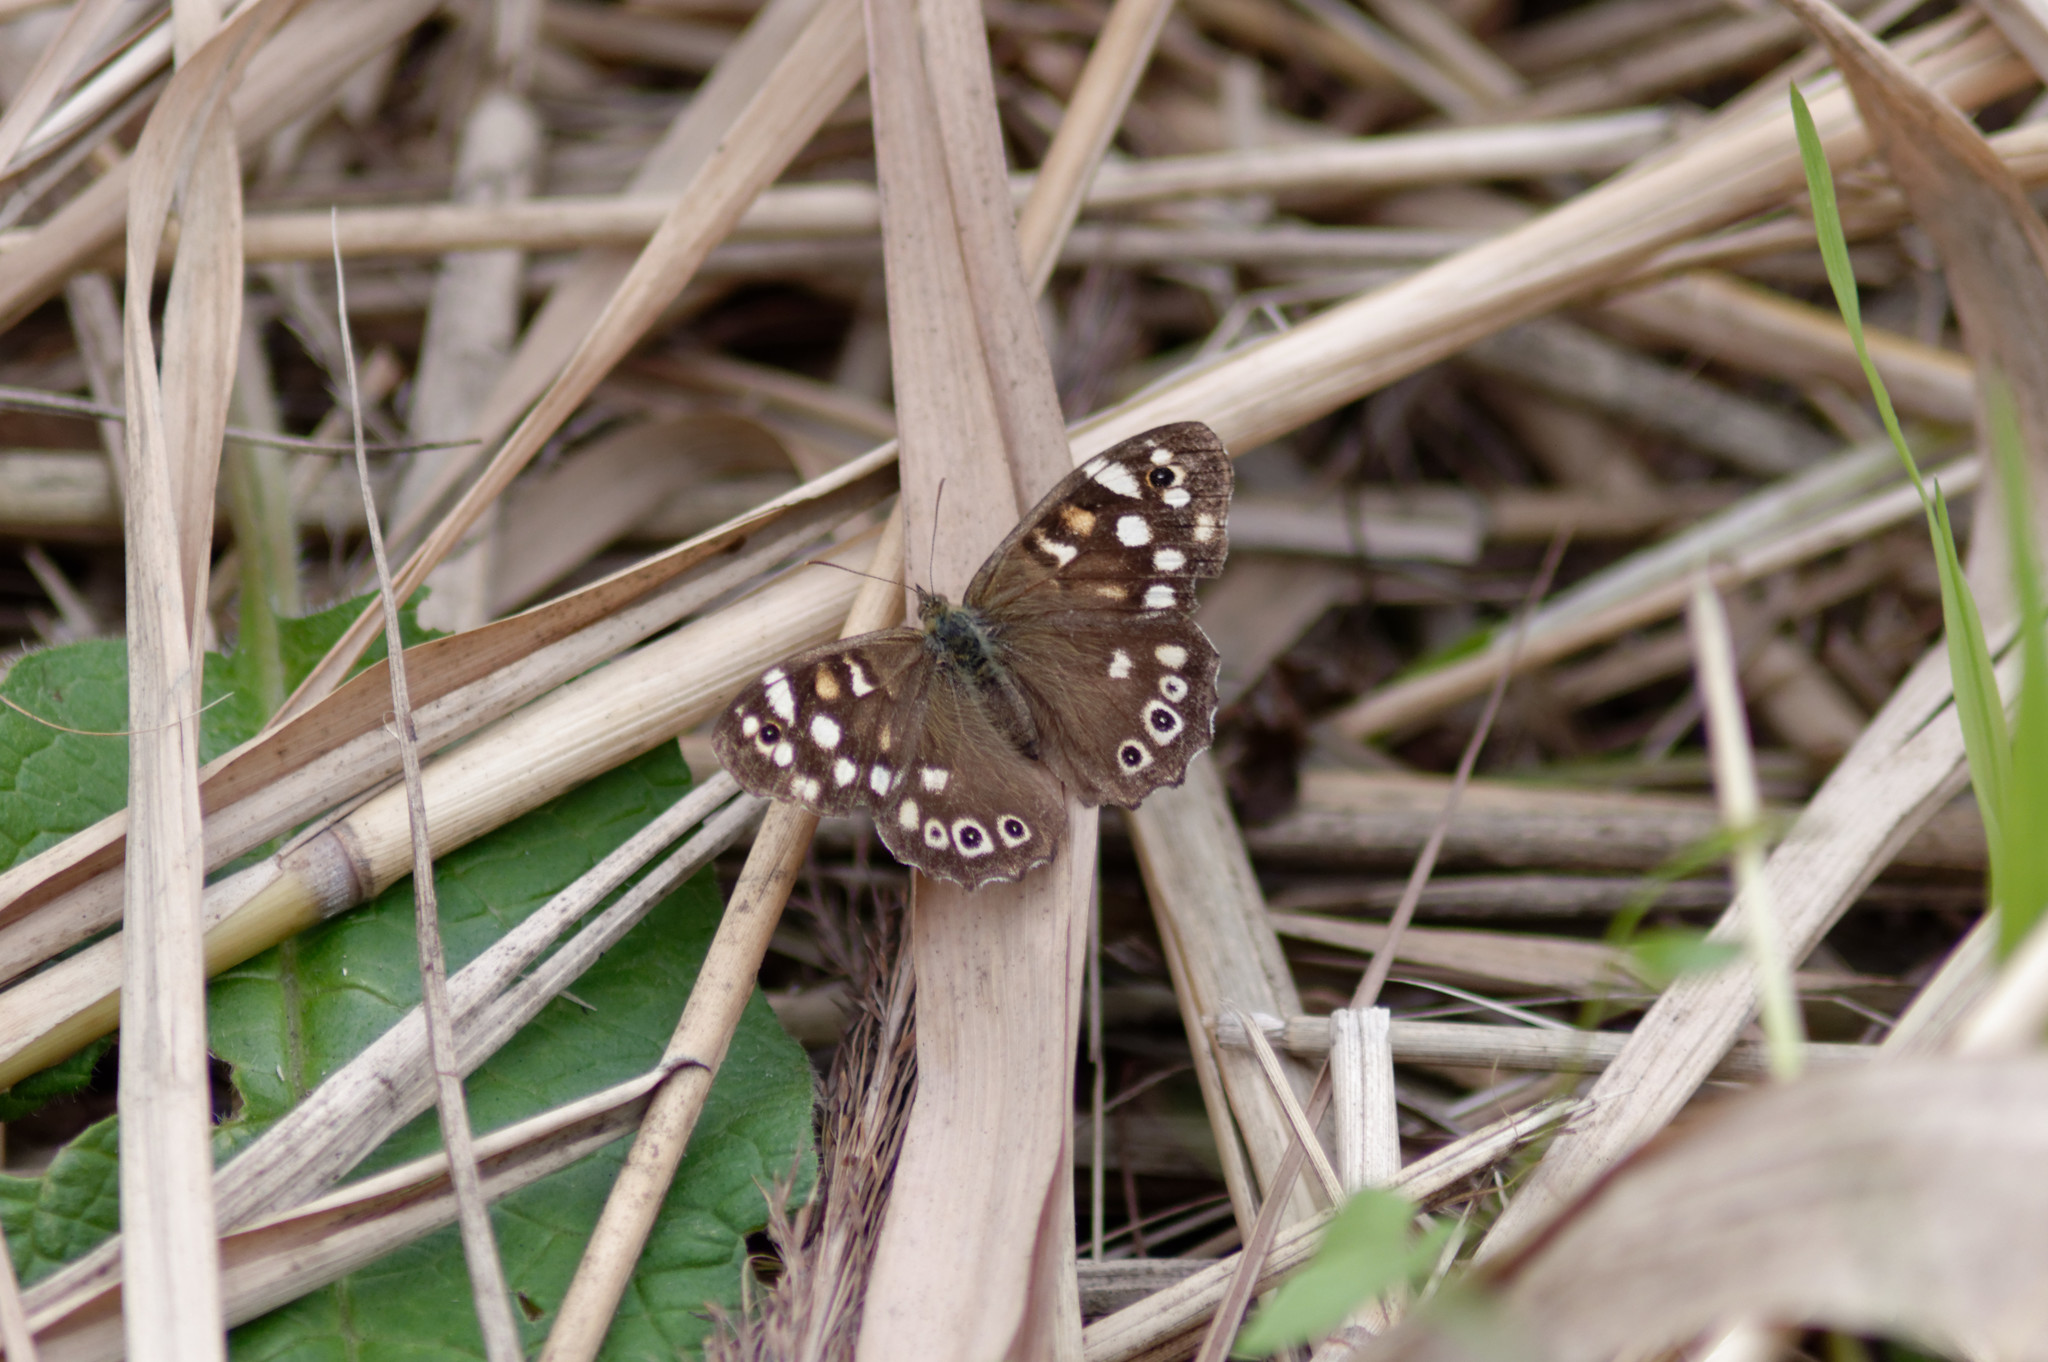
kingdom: Animalia
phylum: Arthropoda
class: Insecta
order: Lepidoptera
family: Nymphalidae
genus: Pararge
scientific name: Pararge aegeria
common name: Speckled wood
